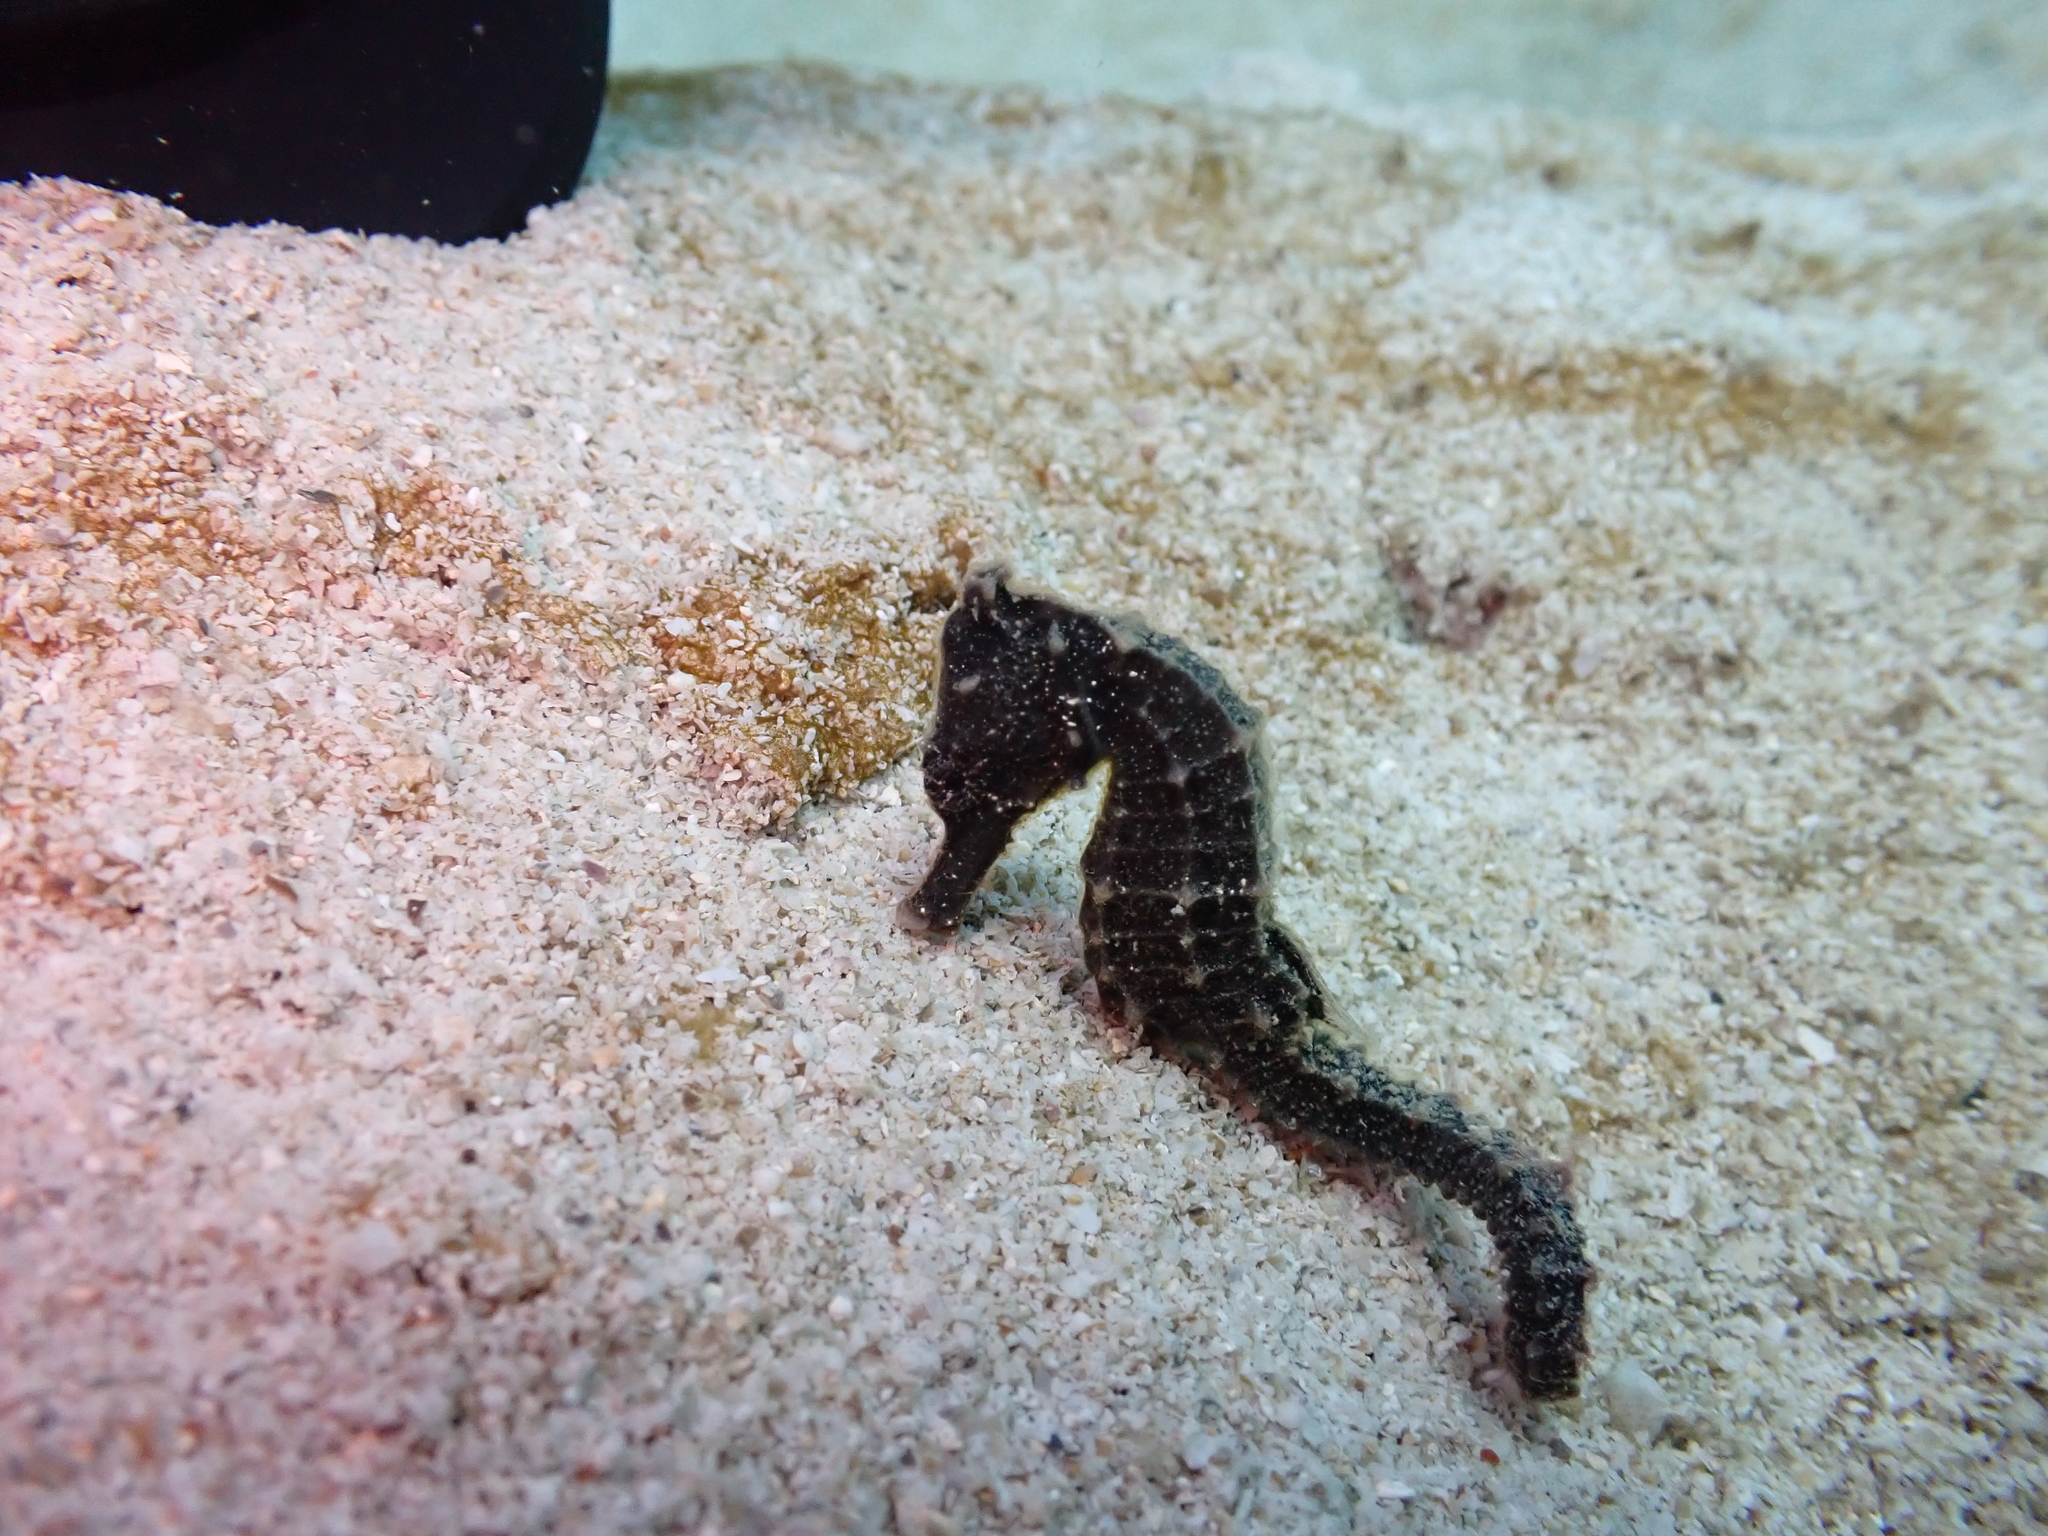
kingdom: Animalia
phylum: Chordata
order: Syngnathiformes
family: Syngnathidae
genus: Hippocampus
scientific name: Hippocampus kuda
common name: Spotted seahorse
